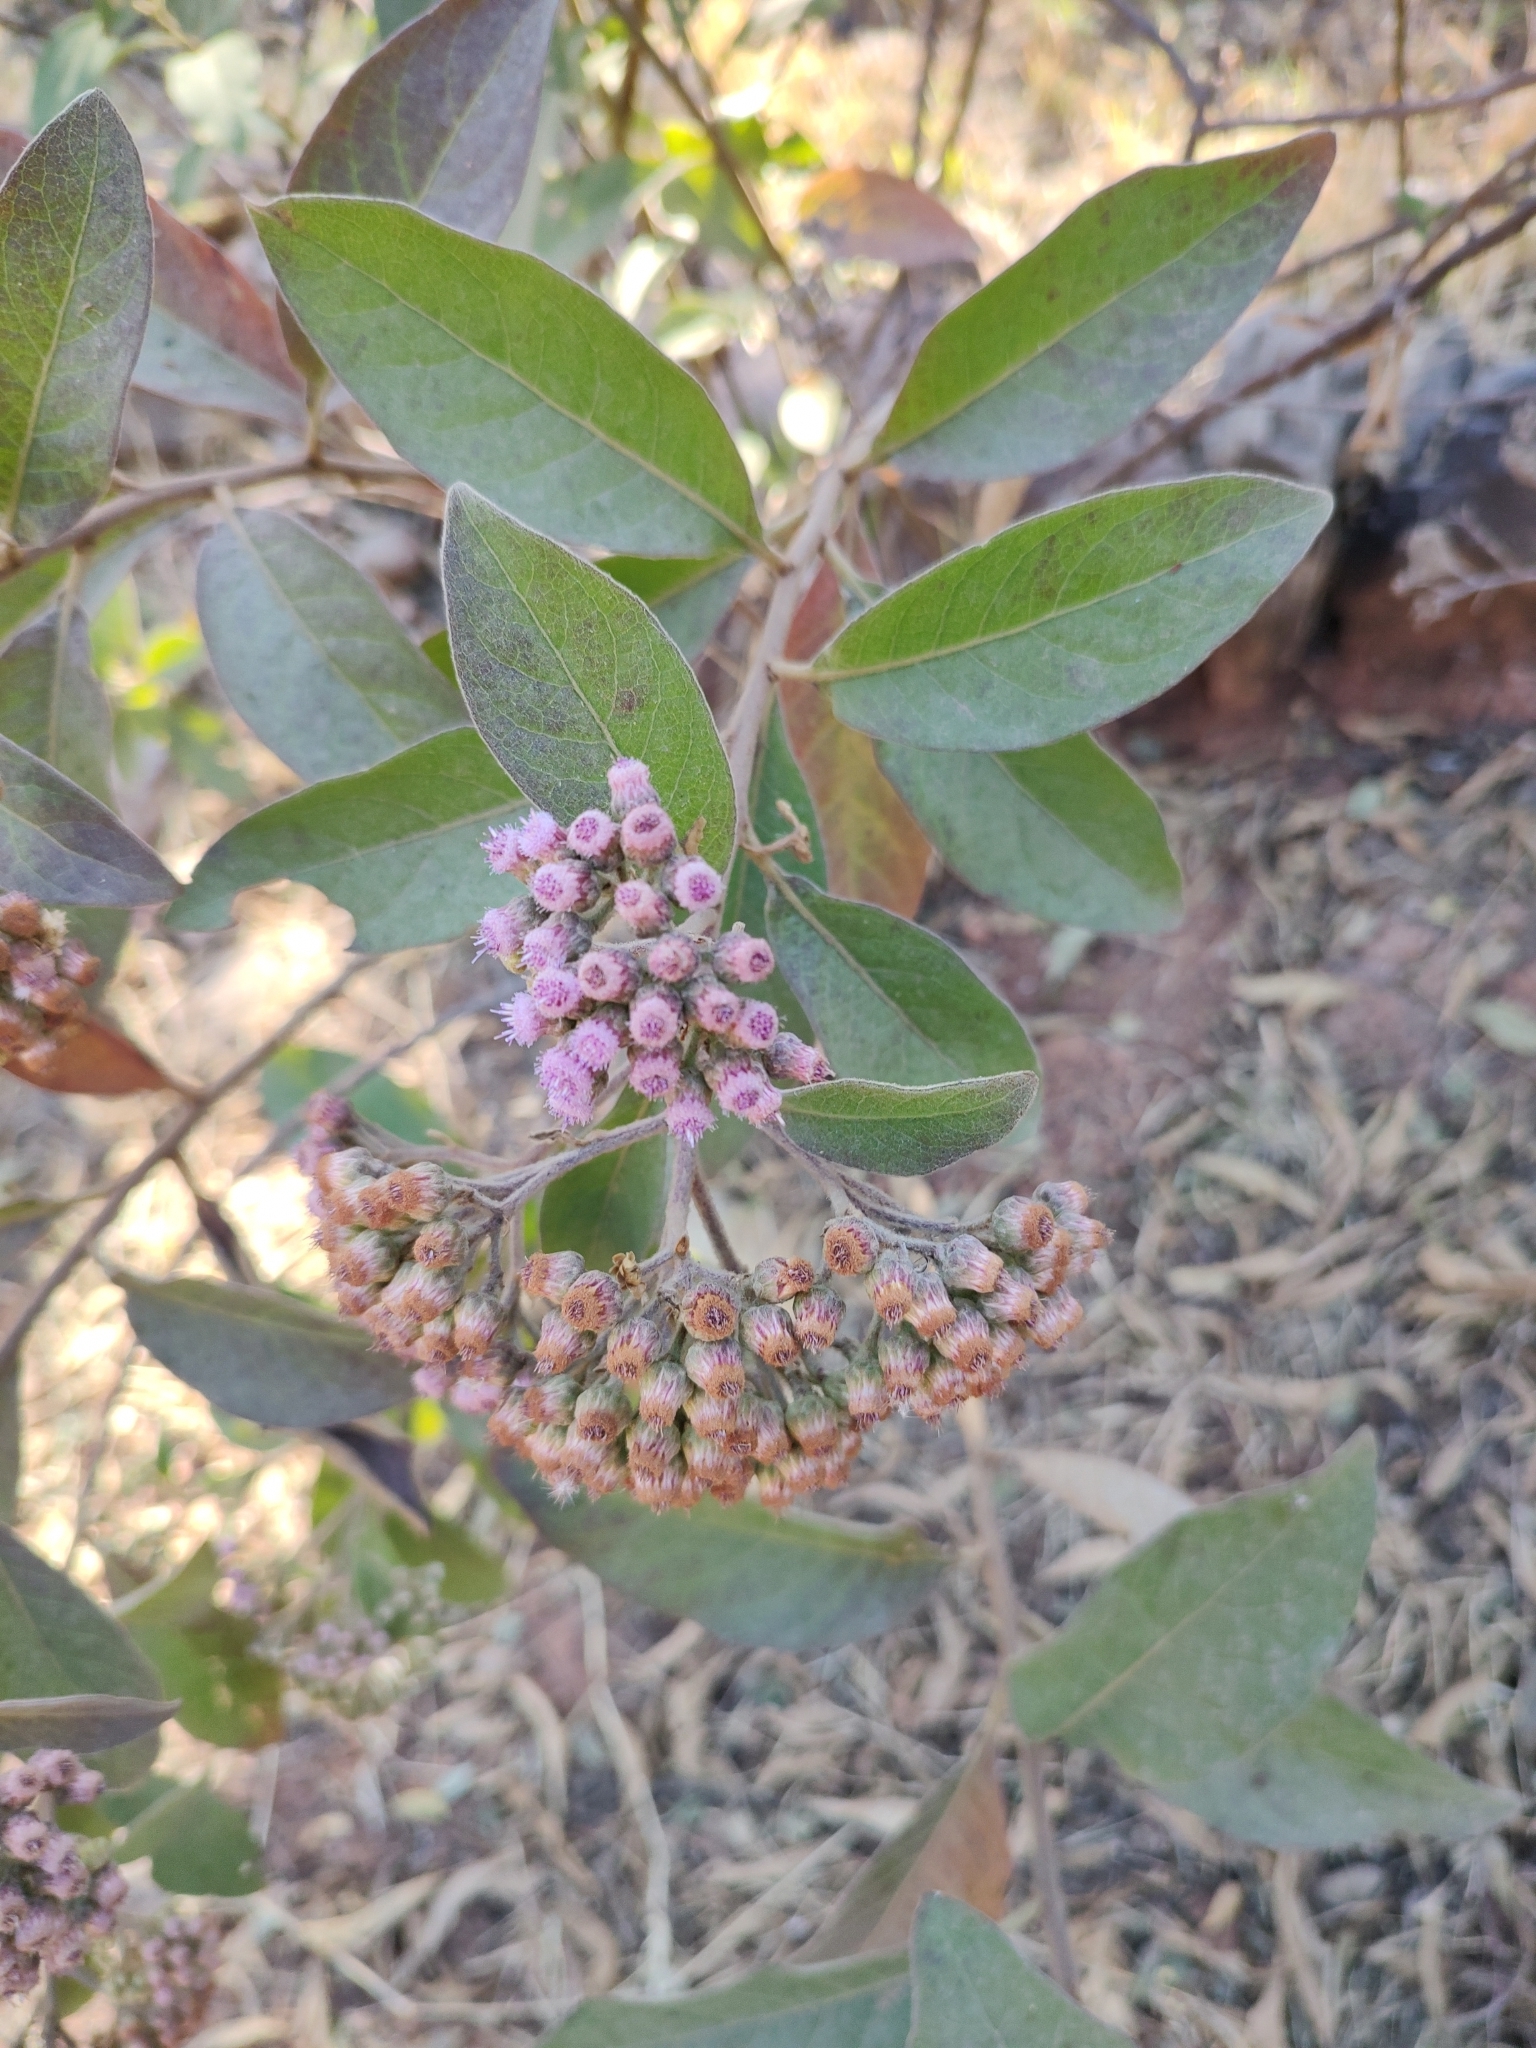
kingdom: Plantae
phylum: Tracheophyta
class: Magnoliopsida
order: Asterales
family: Asteraceae
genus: Pluchea
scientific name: Pluchea carolinensis
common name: Marsh fleabane
